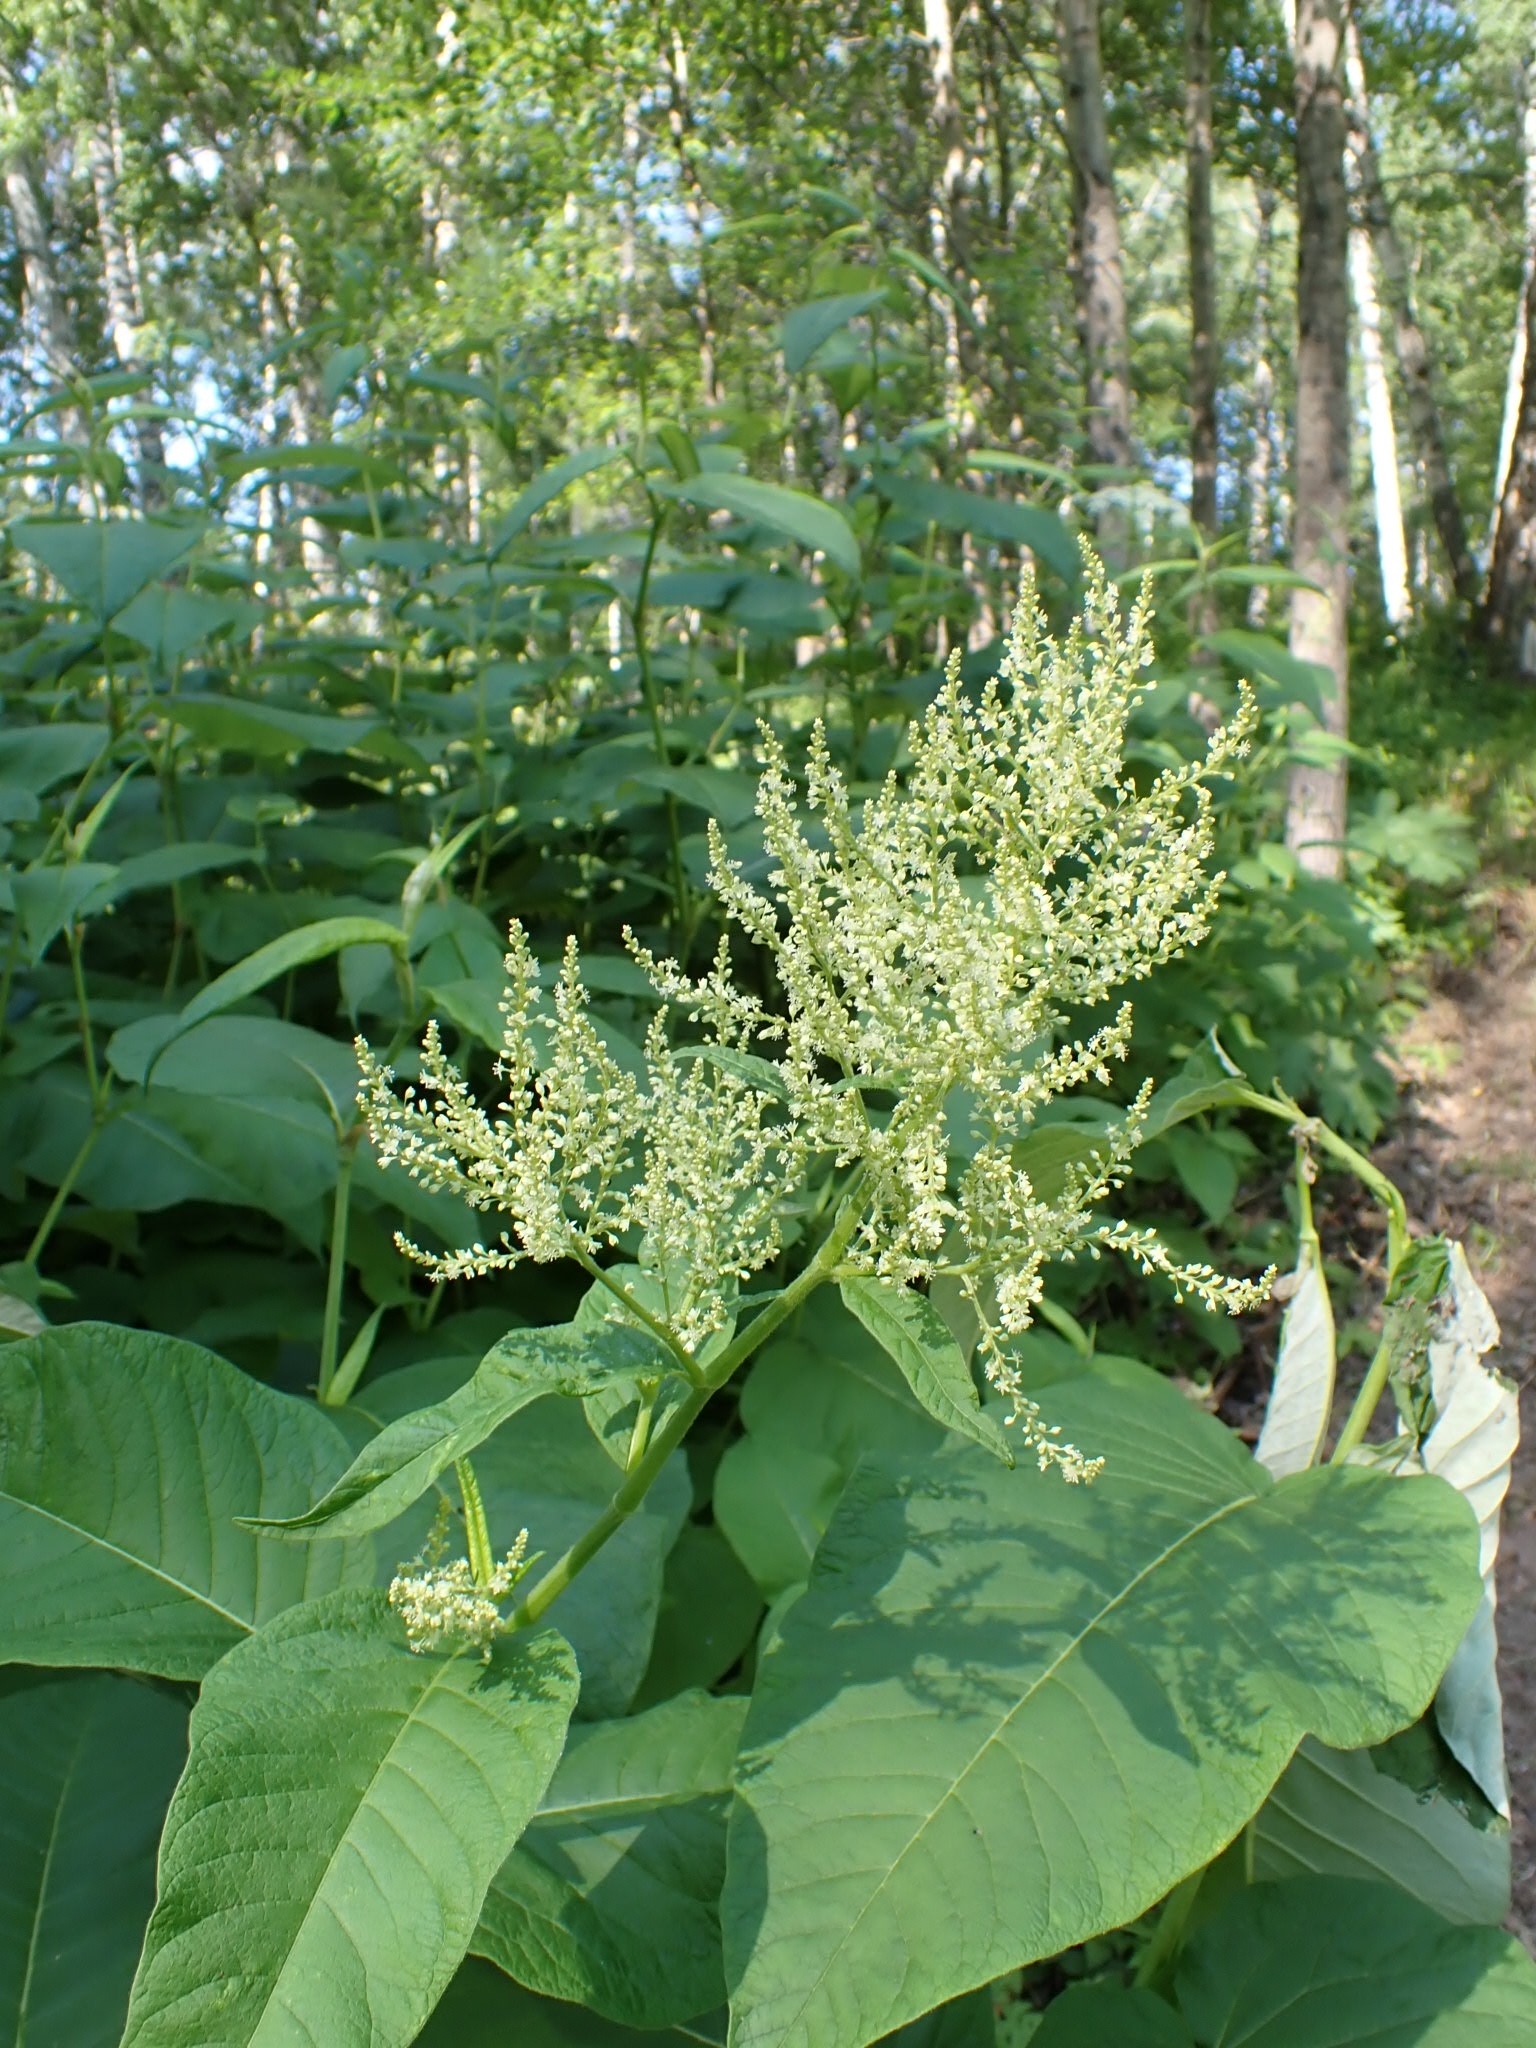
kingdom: Plantae
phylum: Tracheophyta
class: Magnoliopsida
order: Caryophyllales
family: Polygonaceae
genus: Koenigia
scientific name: Koenigia weyrichii
